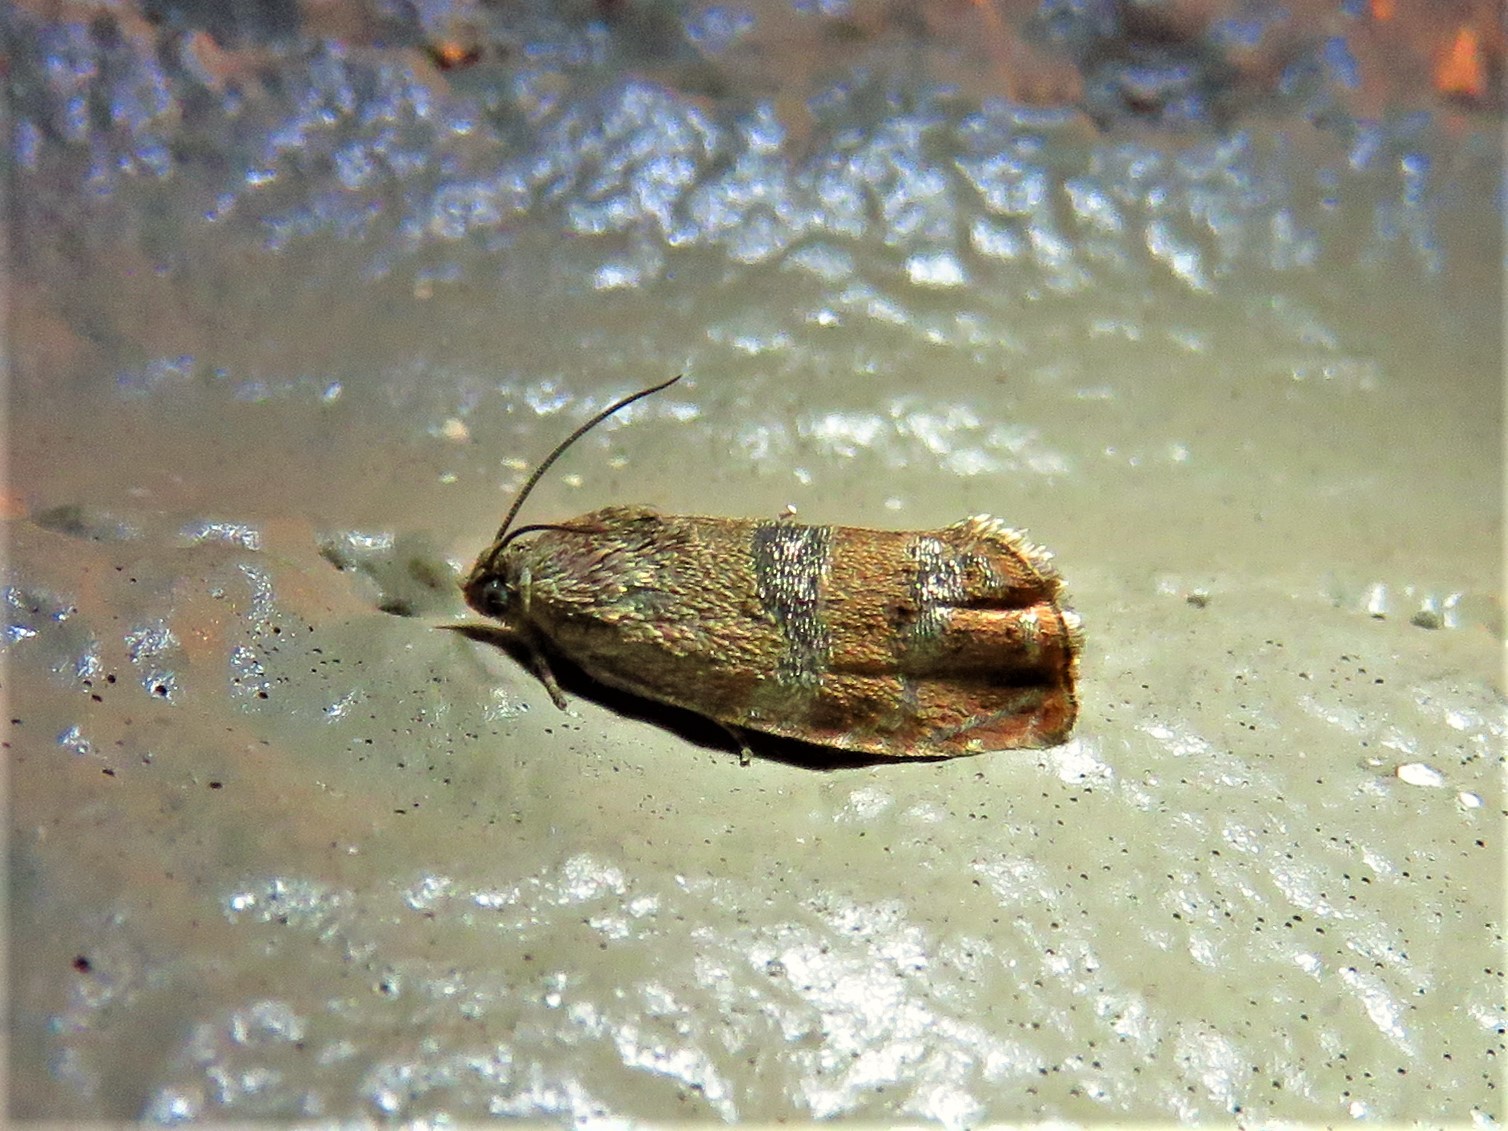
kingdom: Animalia
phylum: Arthropoda
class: Insecta
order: Lepidoptera
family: Tortricidae
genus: Cydia
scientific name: Cydia latiferreana
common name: Filbertworm moth
